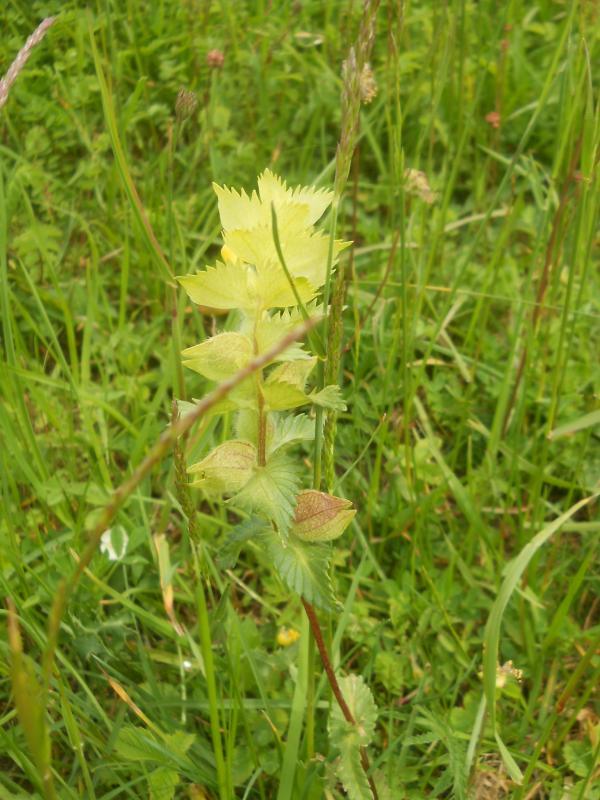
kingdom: Plantae
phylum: Tracheophyta
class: Magnoliopsida
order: Lamiales
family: Orobanchaceae
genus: Rhinanthus
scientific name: Rhinanthus alectorolophus
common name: Greater yellow-rattle
